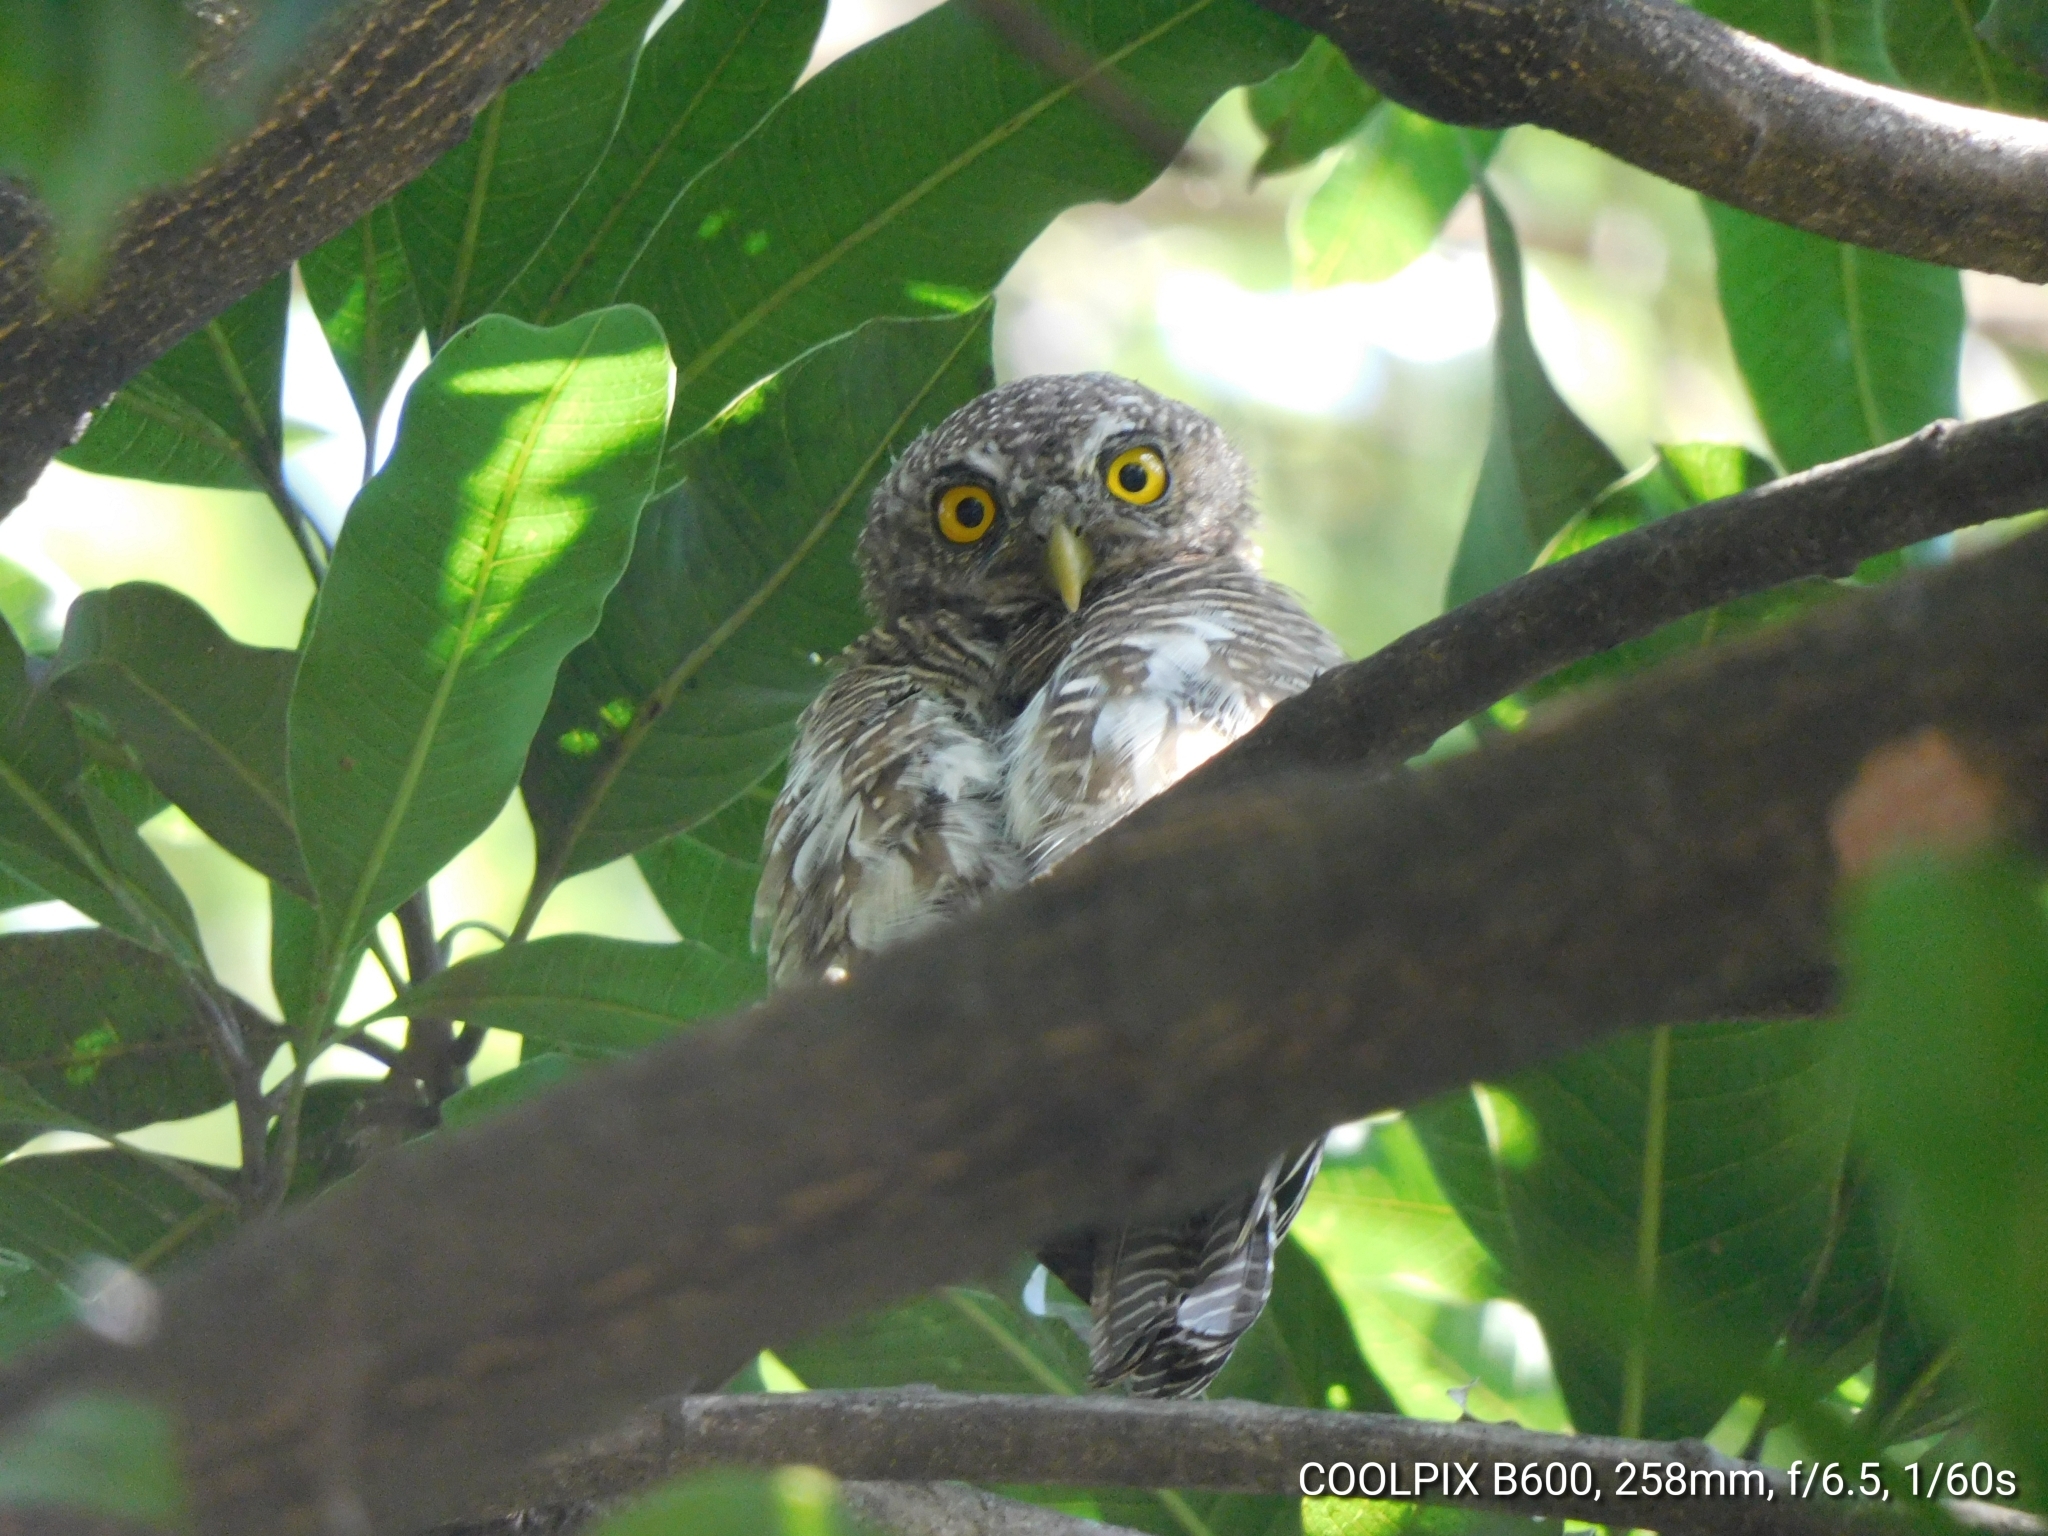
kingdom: Animalia
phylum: Chordata
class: Aves
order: Strigiformes
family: Strigidae
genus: Glaucidium
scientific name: Glaucidium cuculoides
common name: Asian barred owlet
